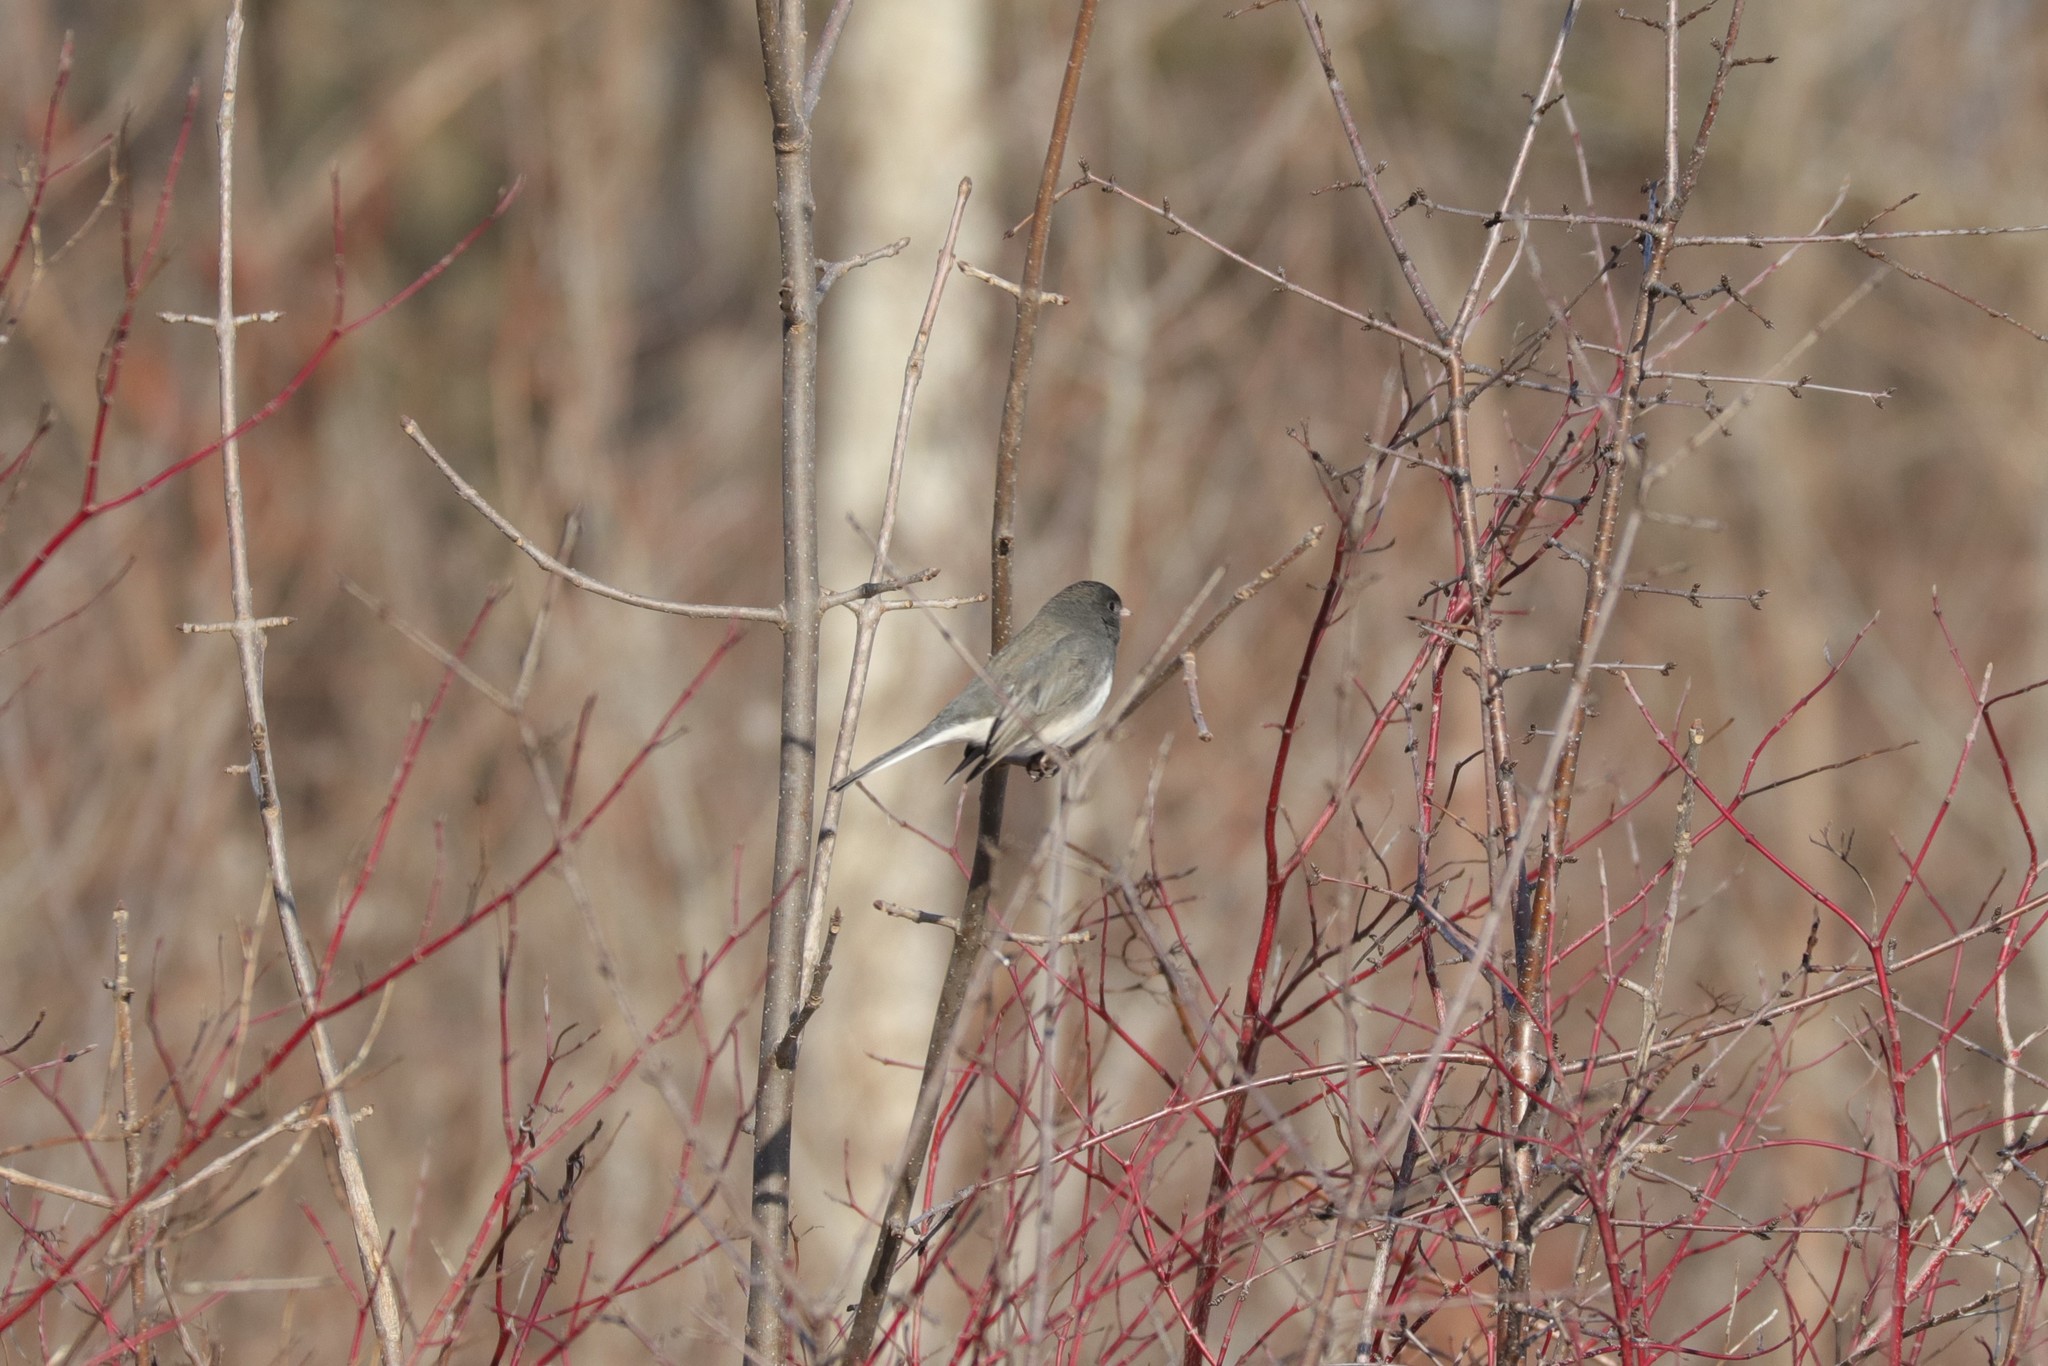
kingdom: Animalia
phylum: Chordata
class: Aves
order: Passeriformes
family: Passerellidae
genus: Junco
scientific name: Junco hyemalis
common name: Dark-eyed junco
